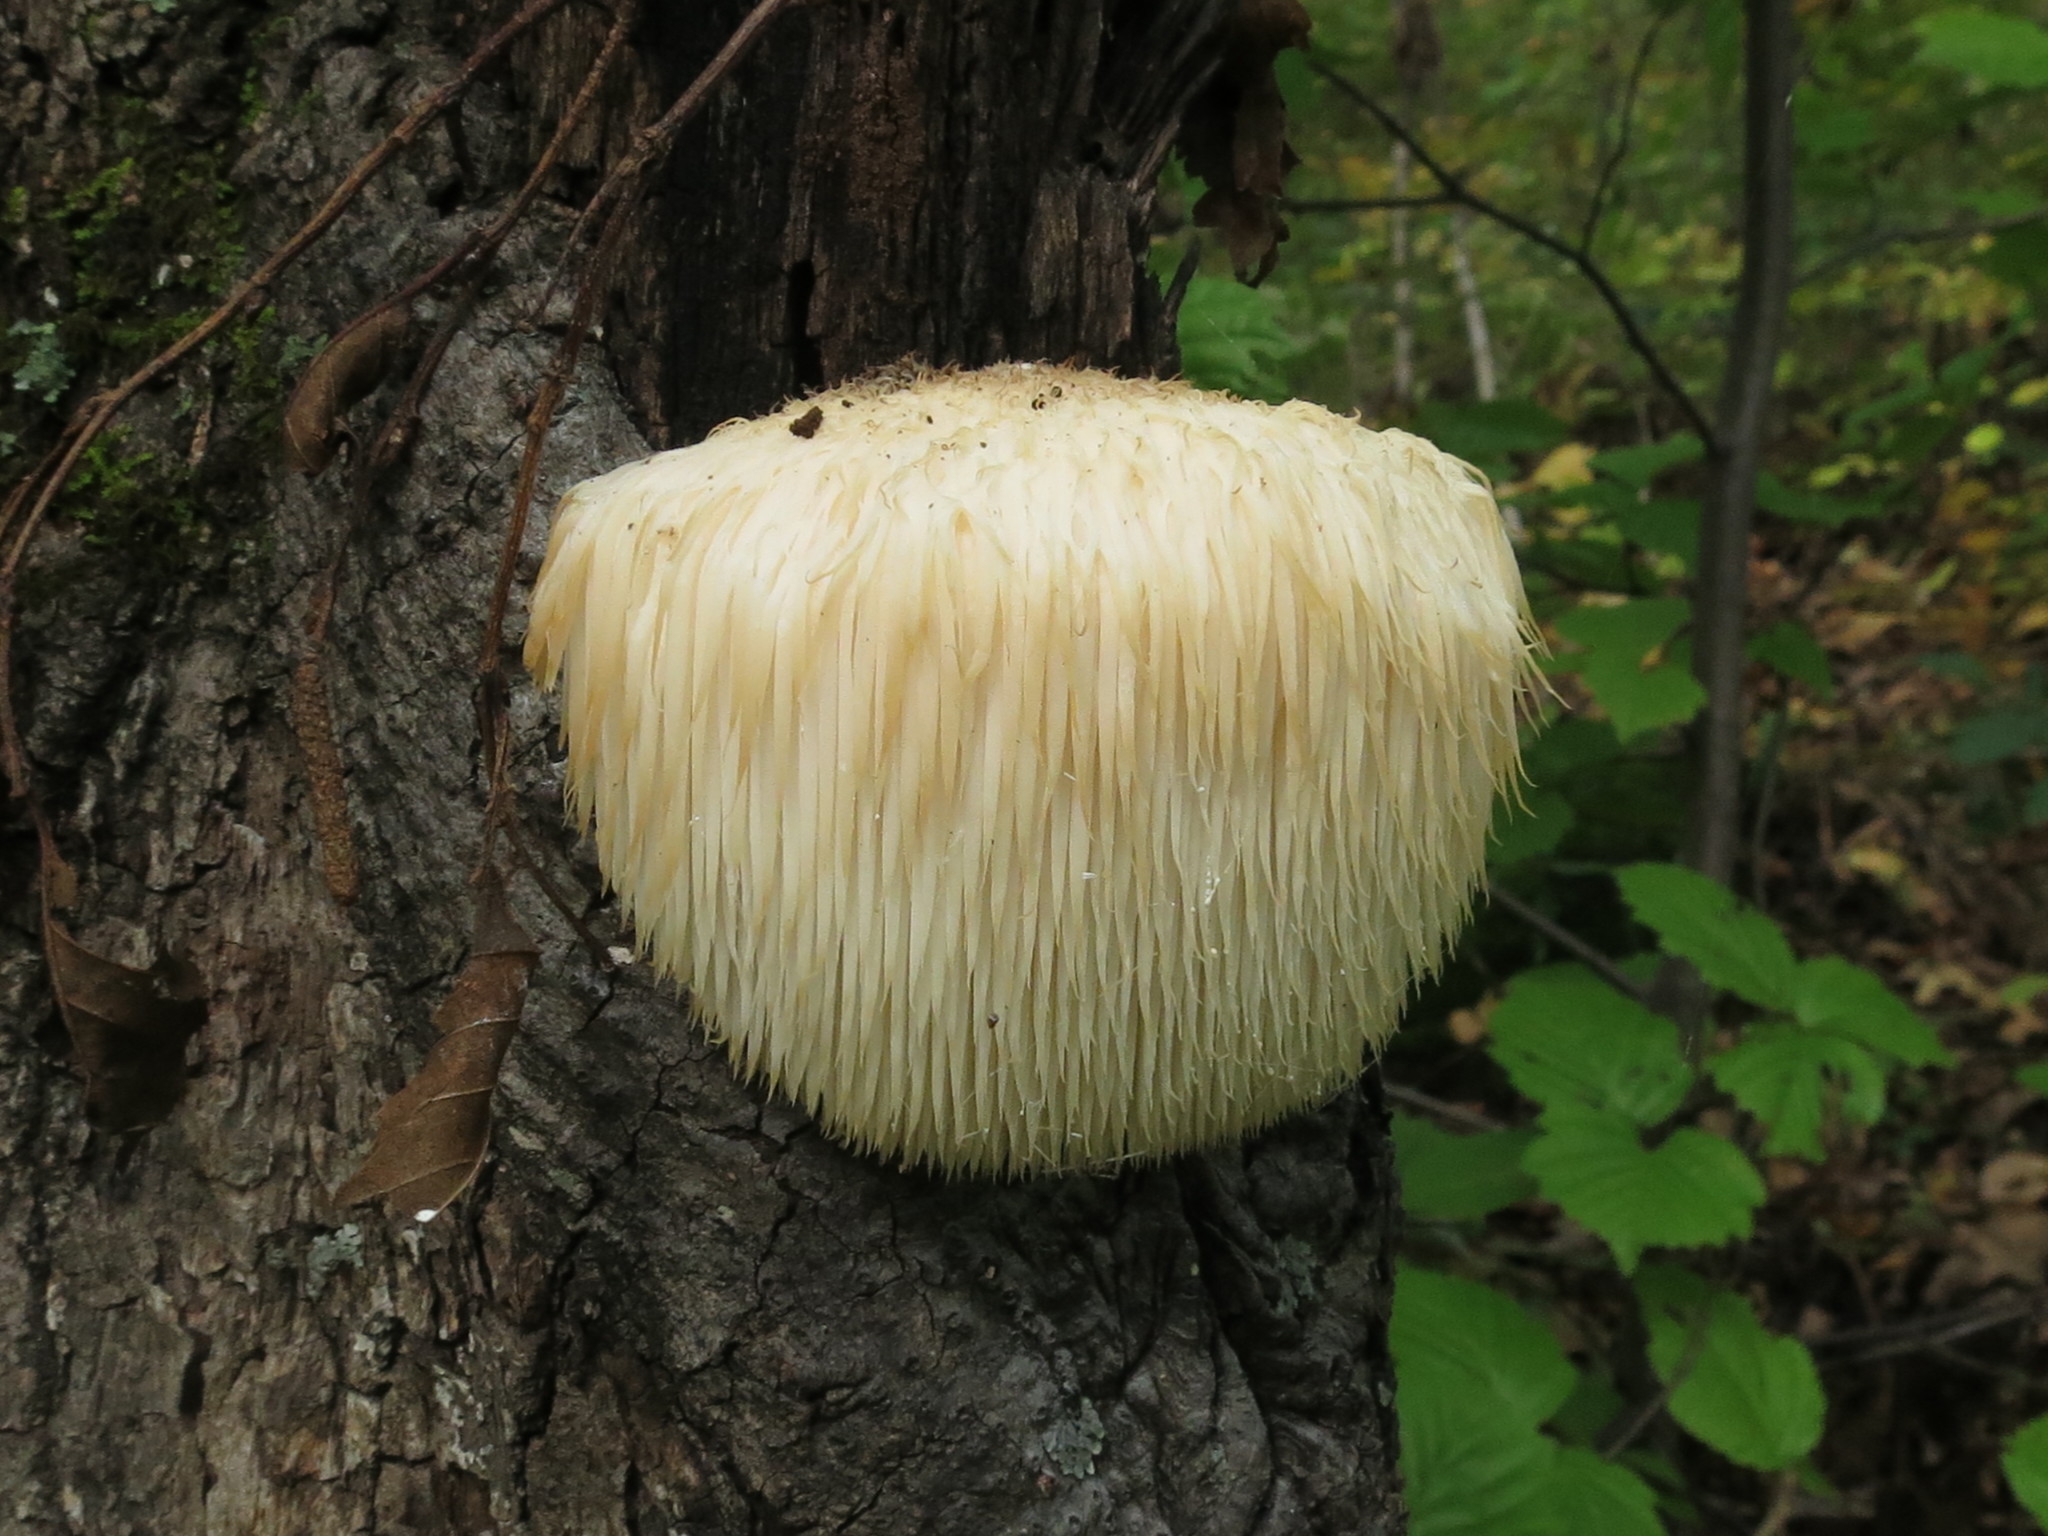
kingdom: Fungi
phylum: Basidiomycota
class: Agaricomycetes
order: Russulales
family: Hericiaceae
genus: Hericium
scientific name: Hericium erinaceus
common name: Bearded tooth
